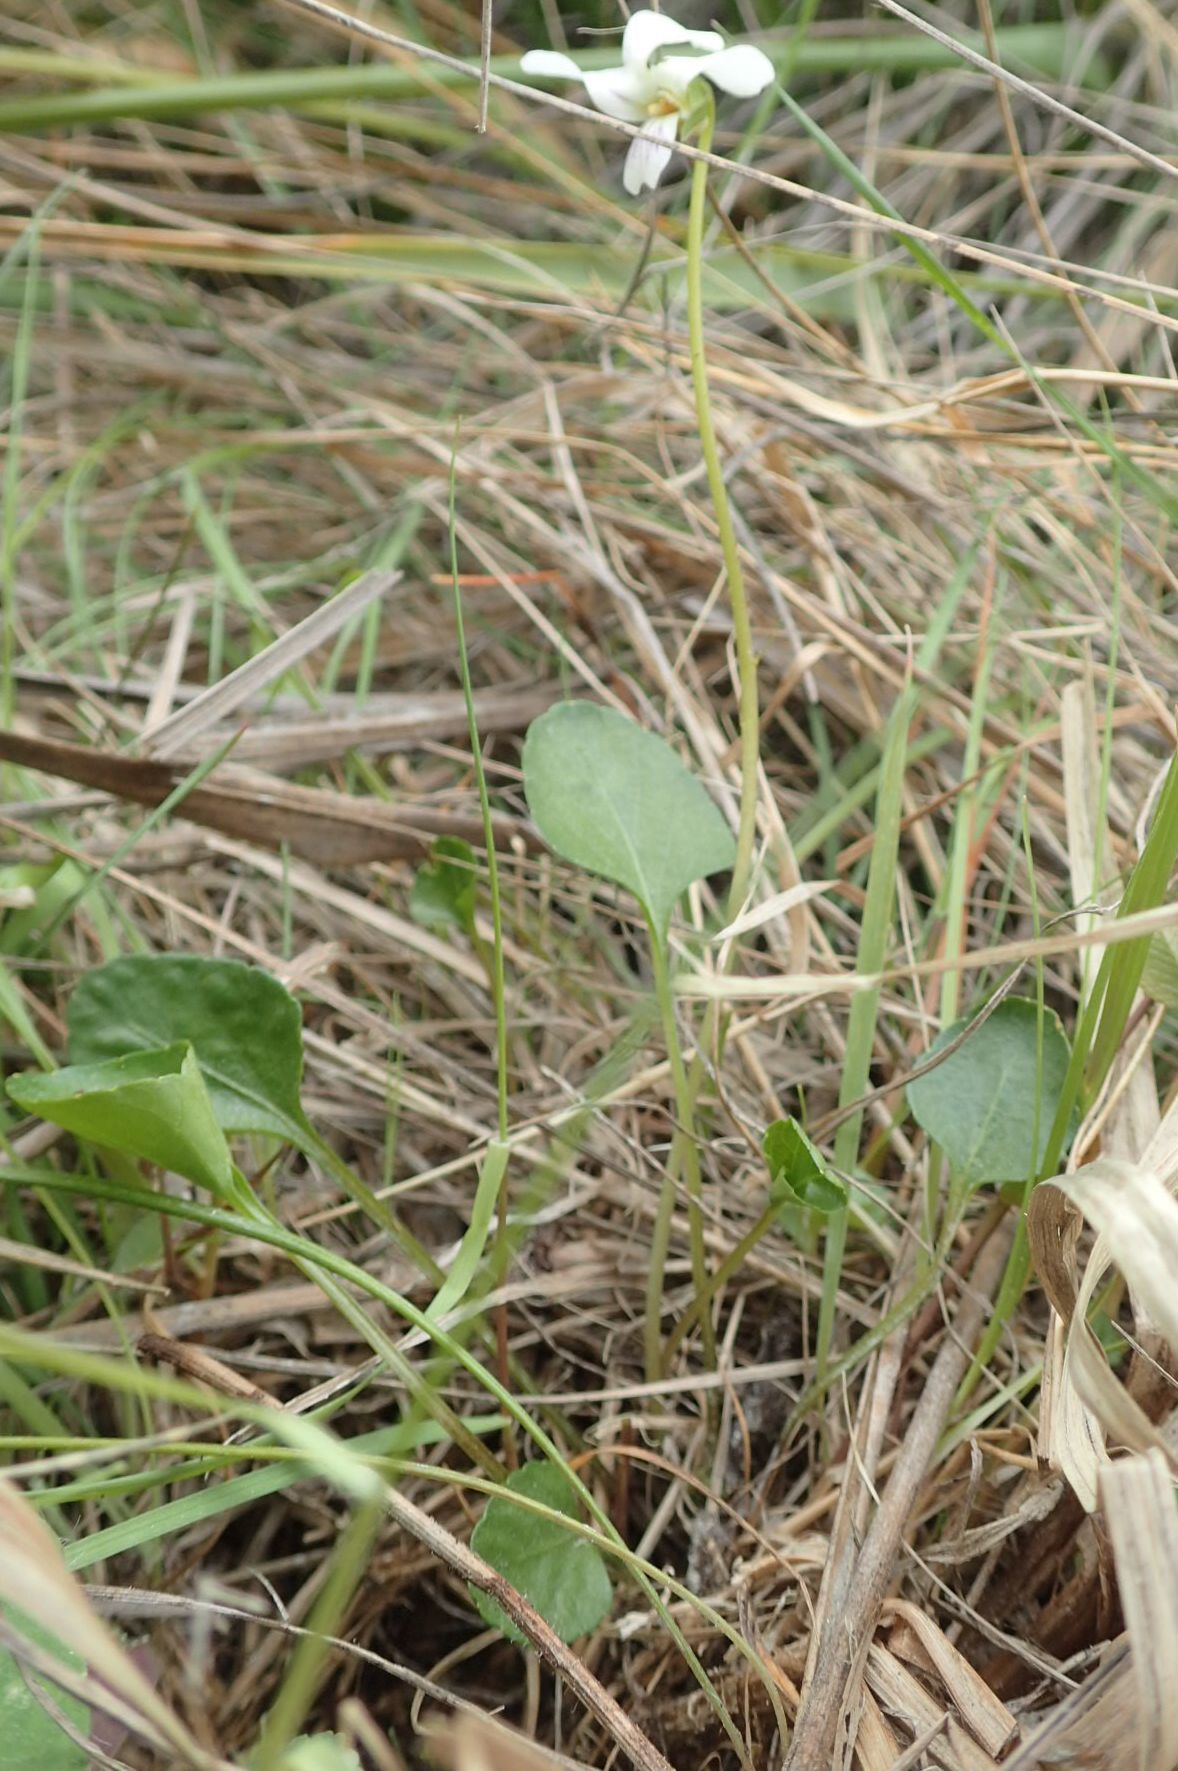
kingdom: Plantae
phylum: Tracheophyta
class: Magnoliopsida
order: Malpighiales
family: Violaceae
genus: Viola
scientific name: Viola cunninghamii
